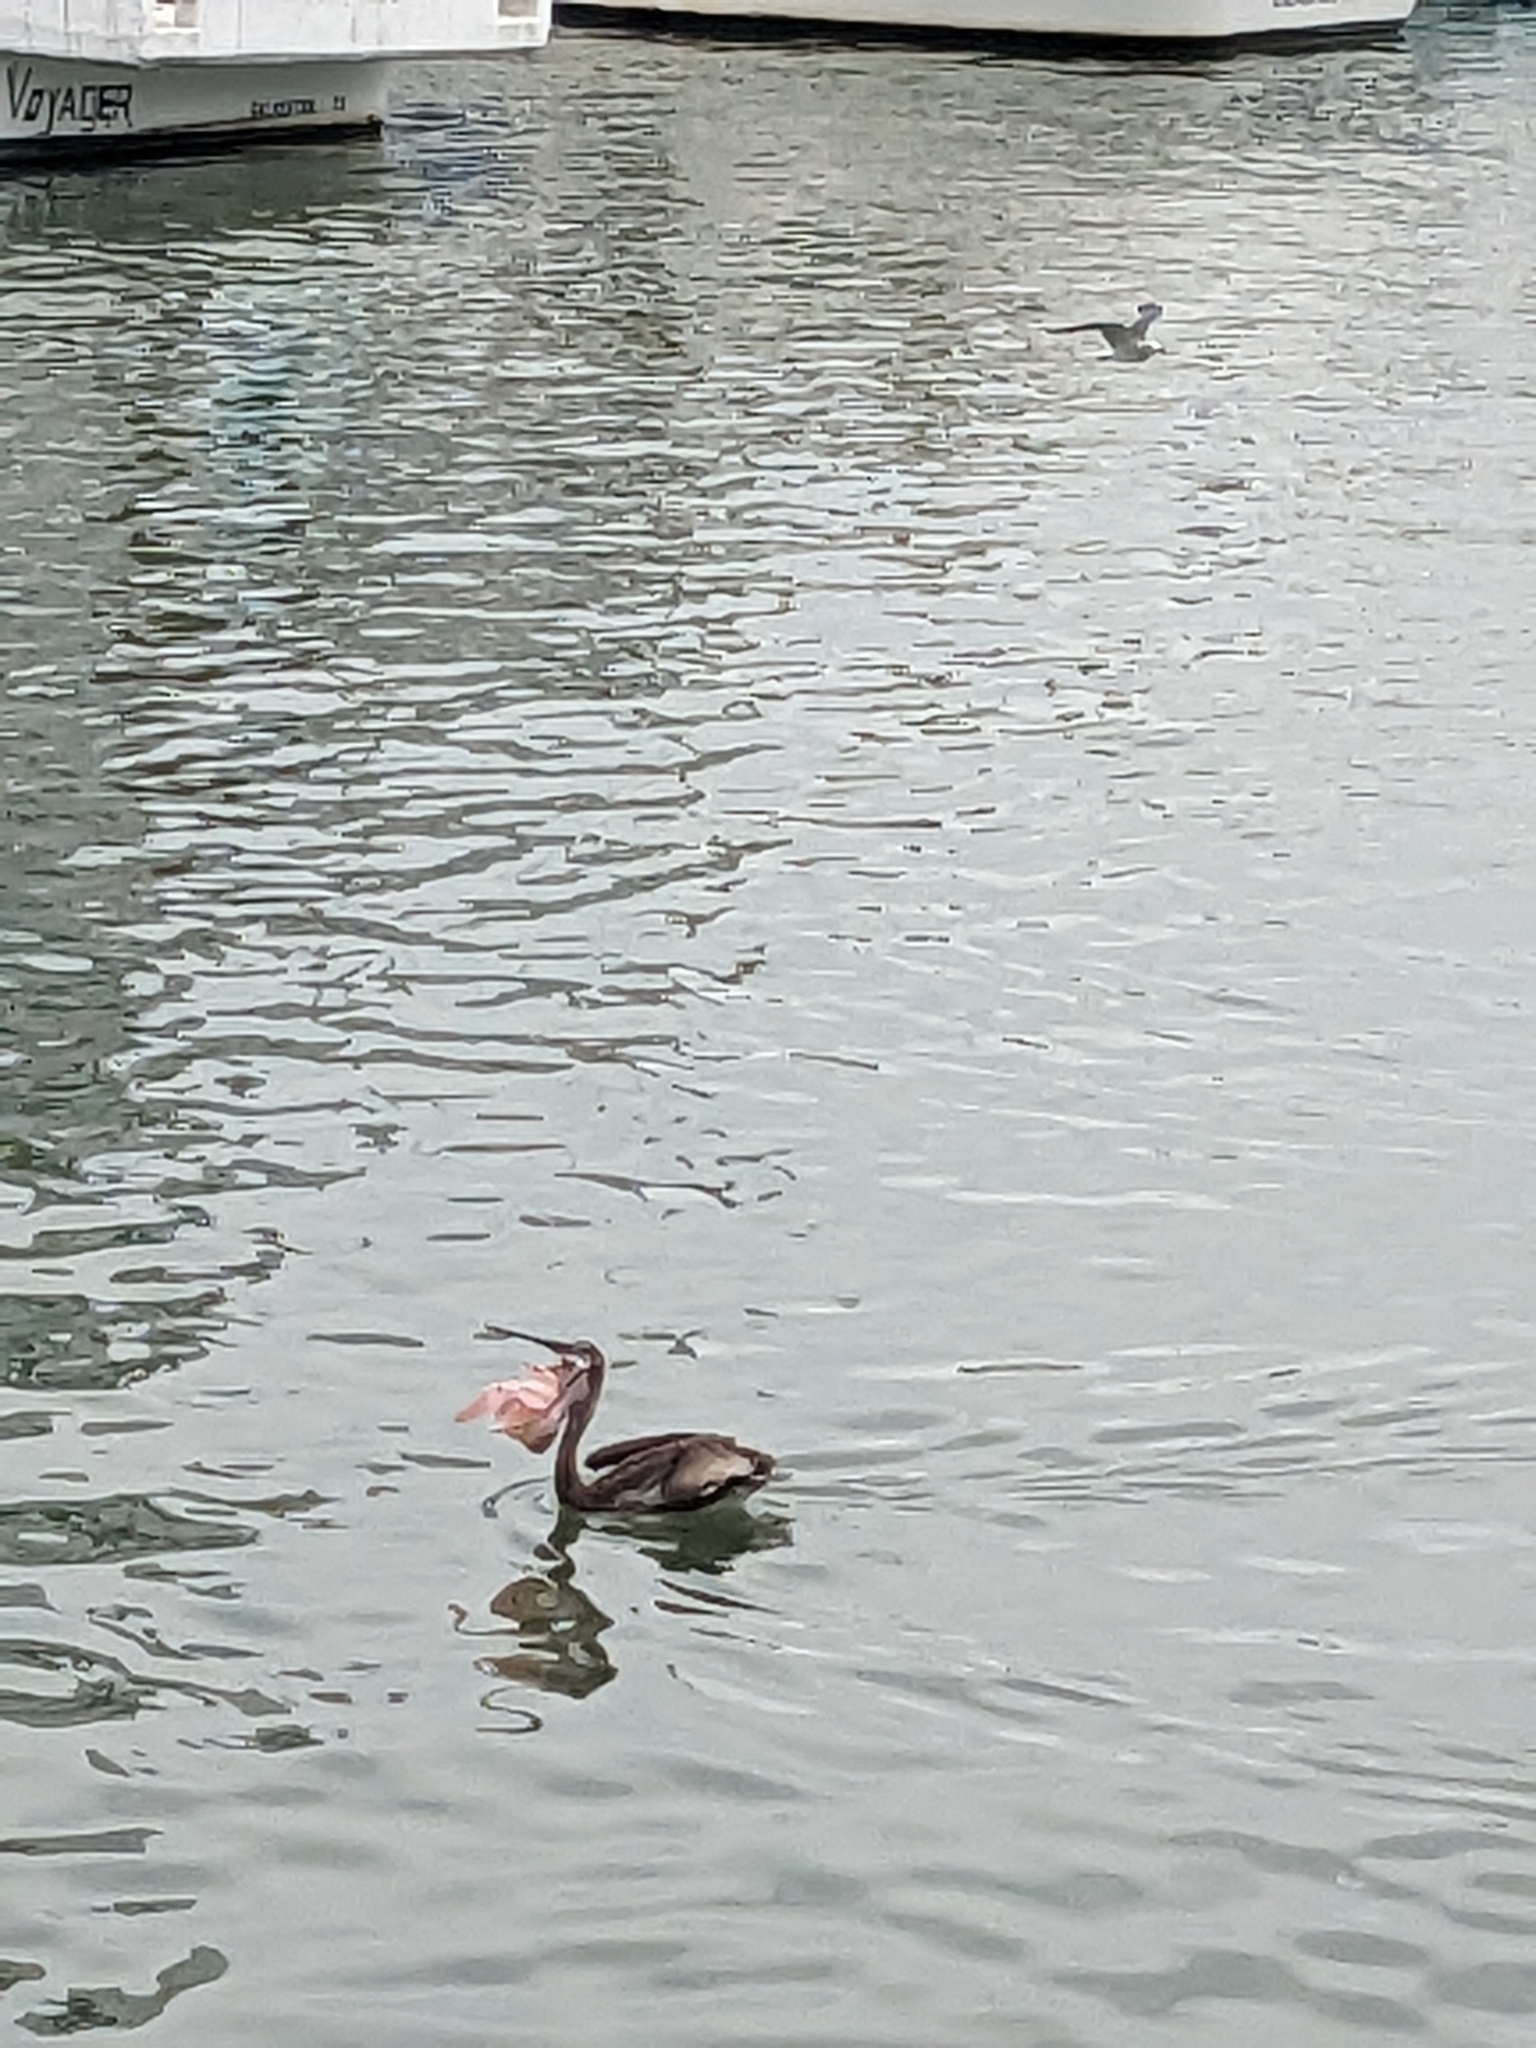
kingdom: Animalia
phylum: Chordata
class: Aves
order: Pelecaniformes
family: Pelecanidae
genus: Pelecanus
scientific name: Pelecanus occidentalis
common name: Brown pelican
